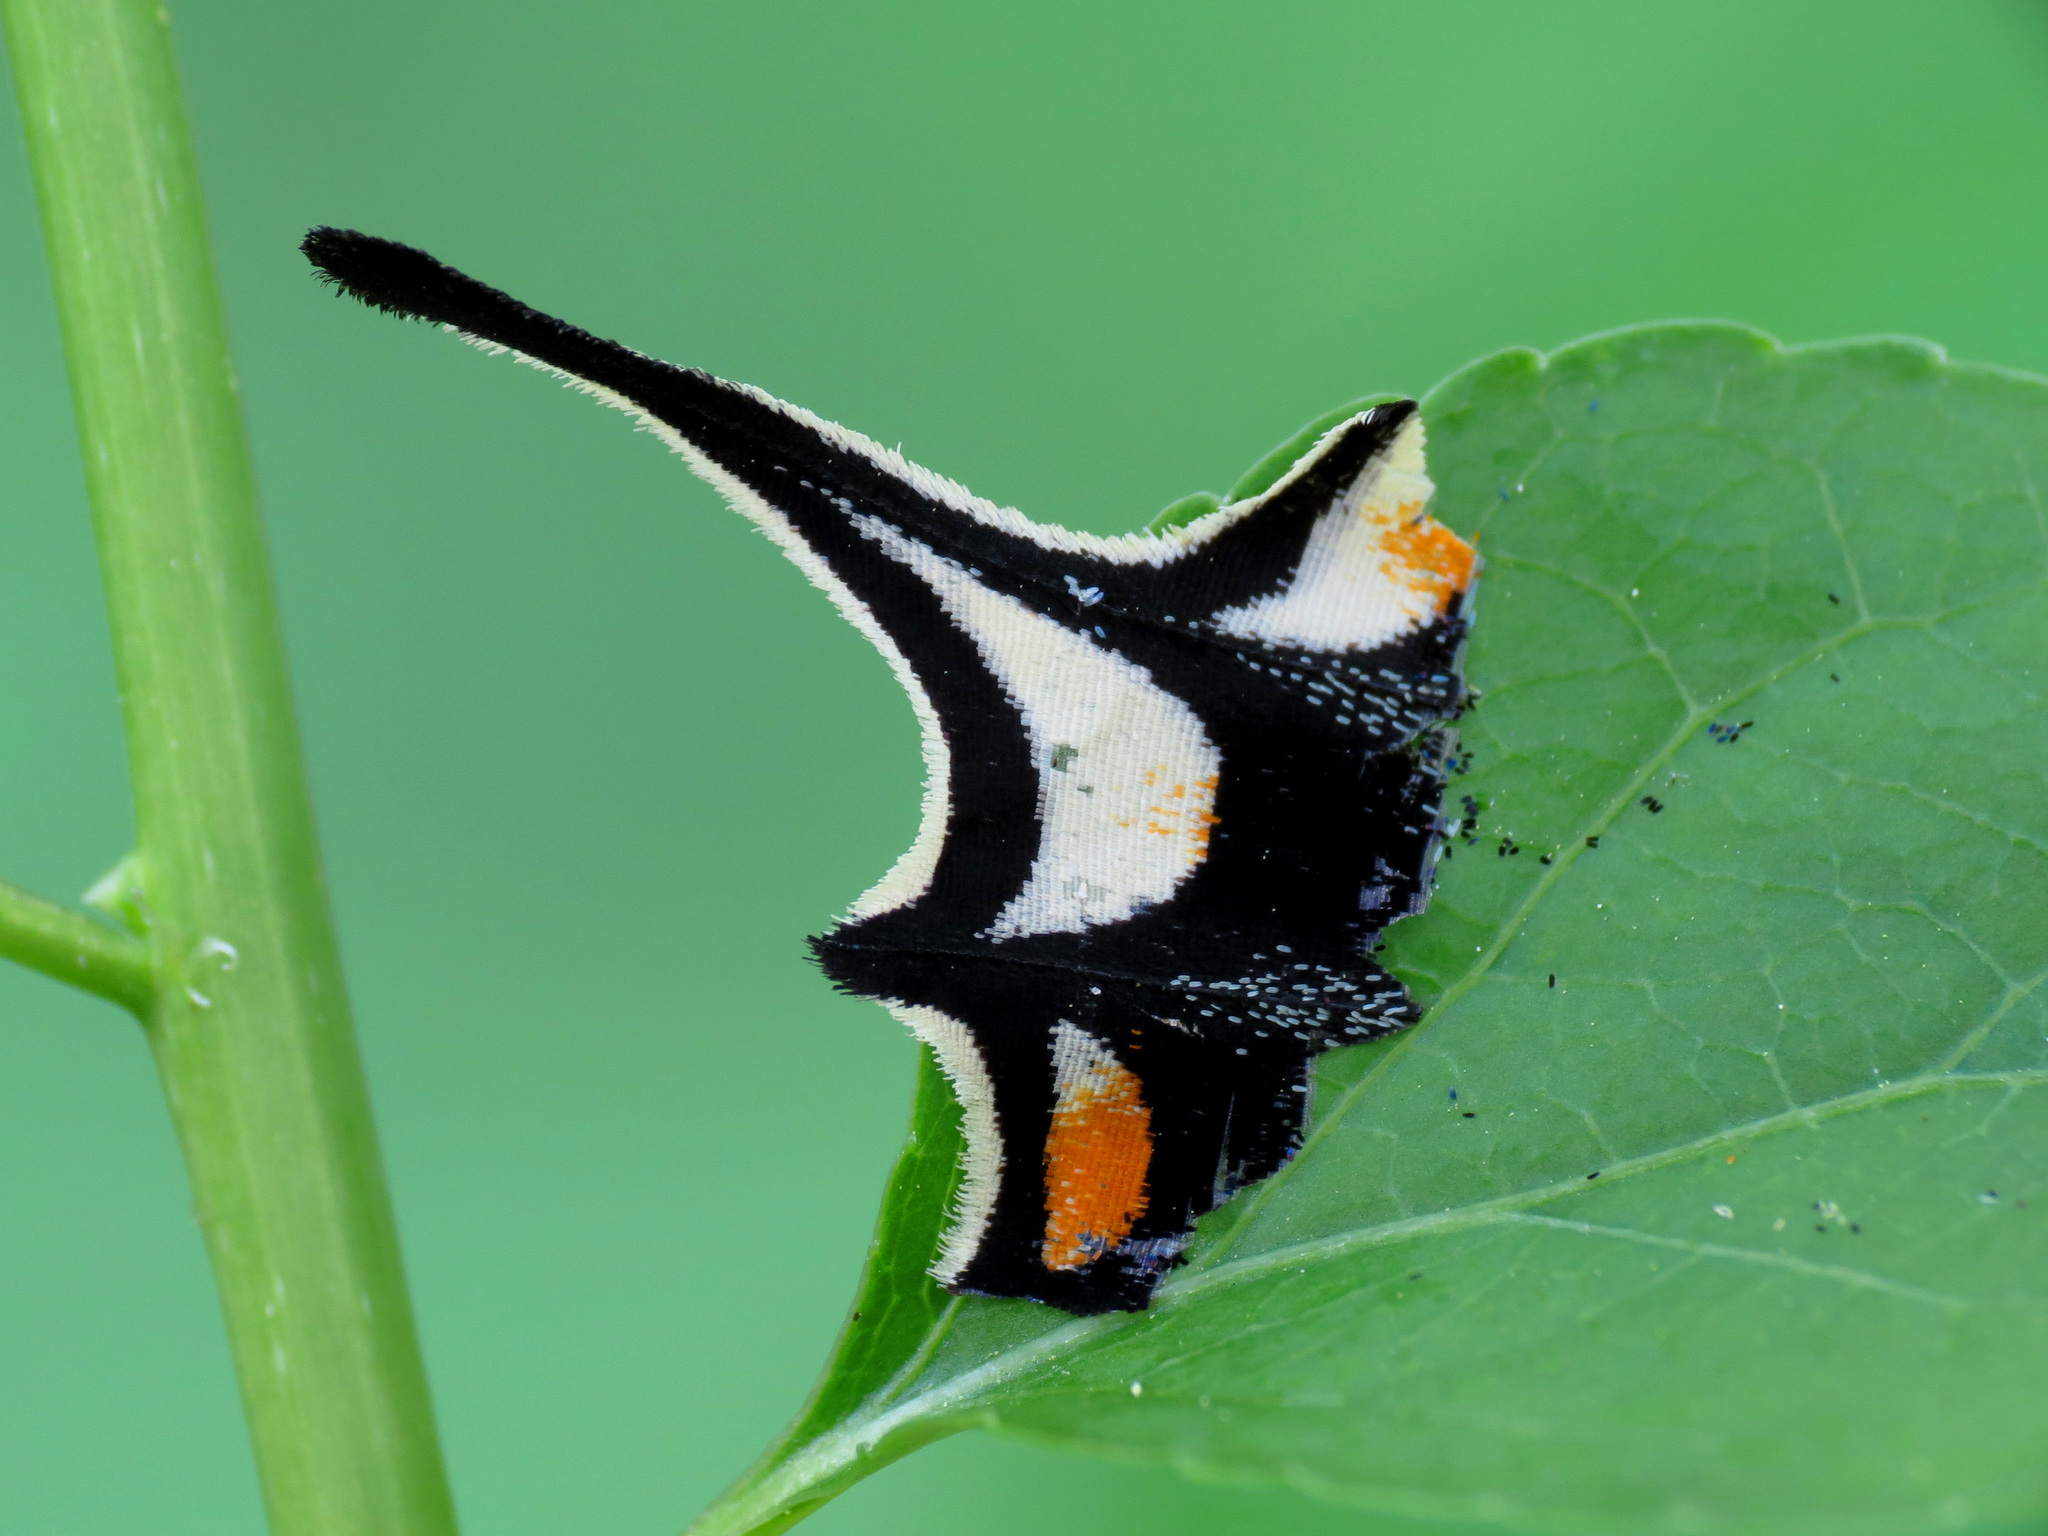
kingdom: Animalia
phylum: Arthropoda
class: Insecta
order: Lepidoptera
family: Papilionidae
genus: Papilio
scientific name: Papilio glaucus
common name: Tiger swallowtail
